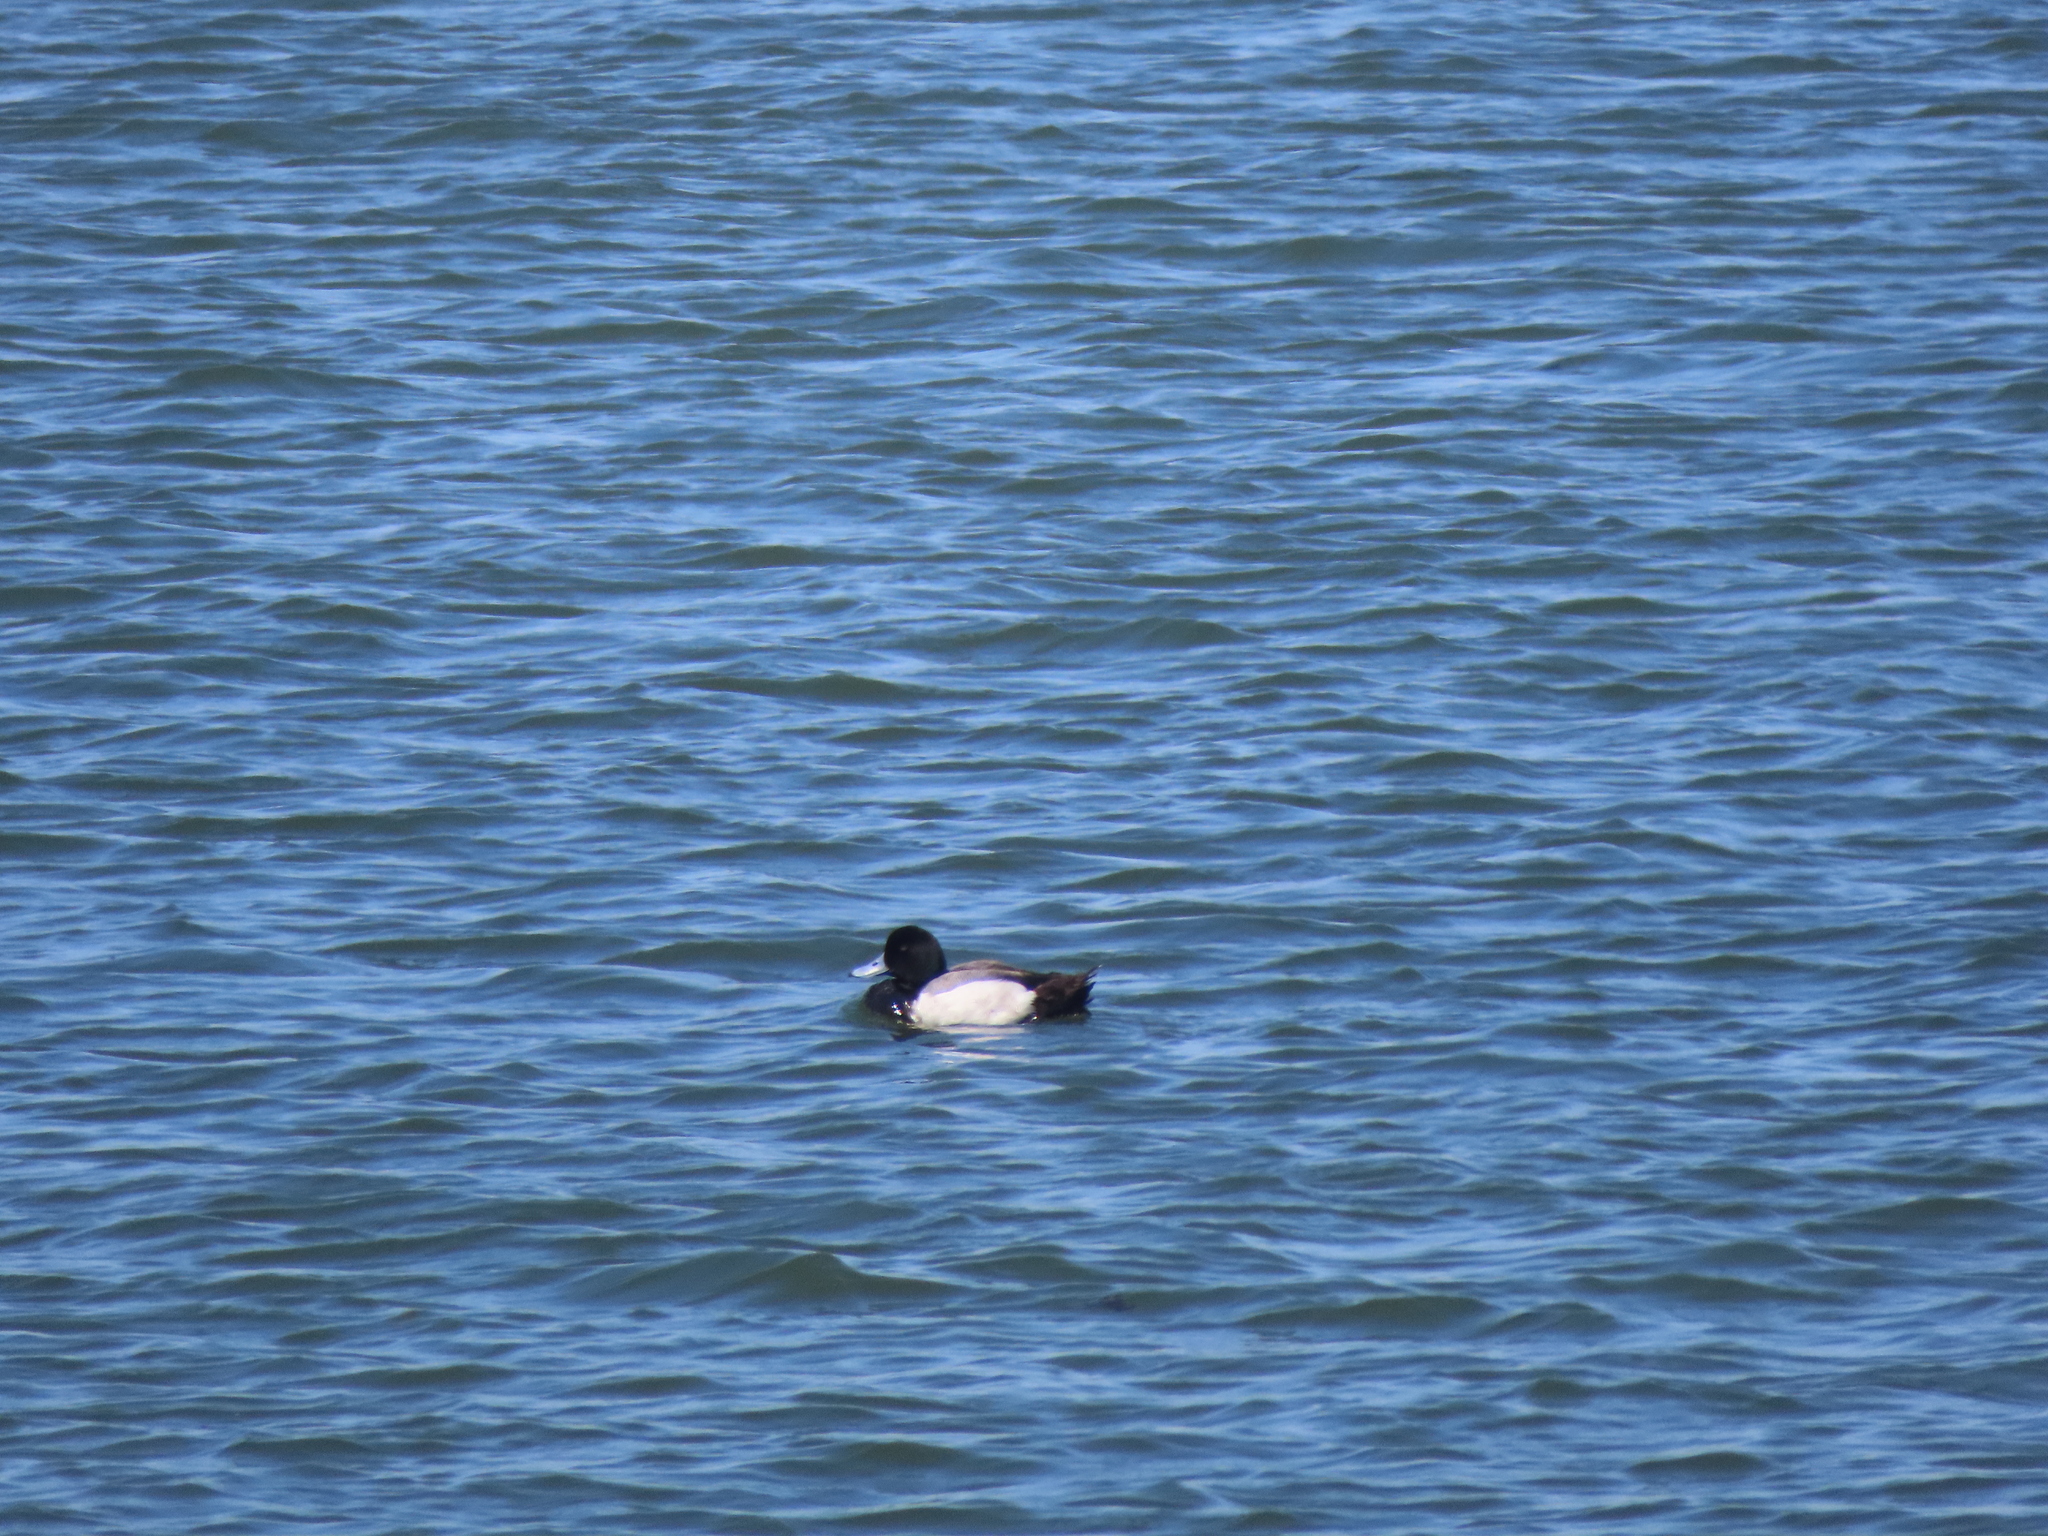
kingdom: Animalia
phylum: Chordata
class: Aves
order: Anseriformes
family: Anatidae
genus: Aythya
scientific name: Aythya marila
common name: Greater scaup
